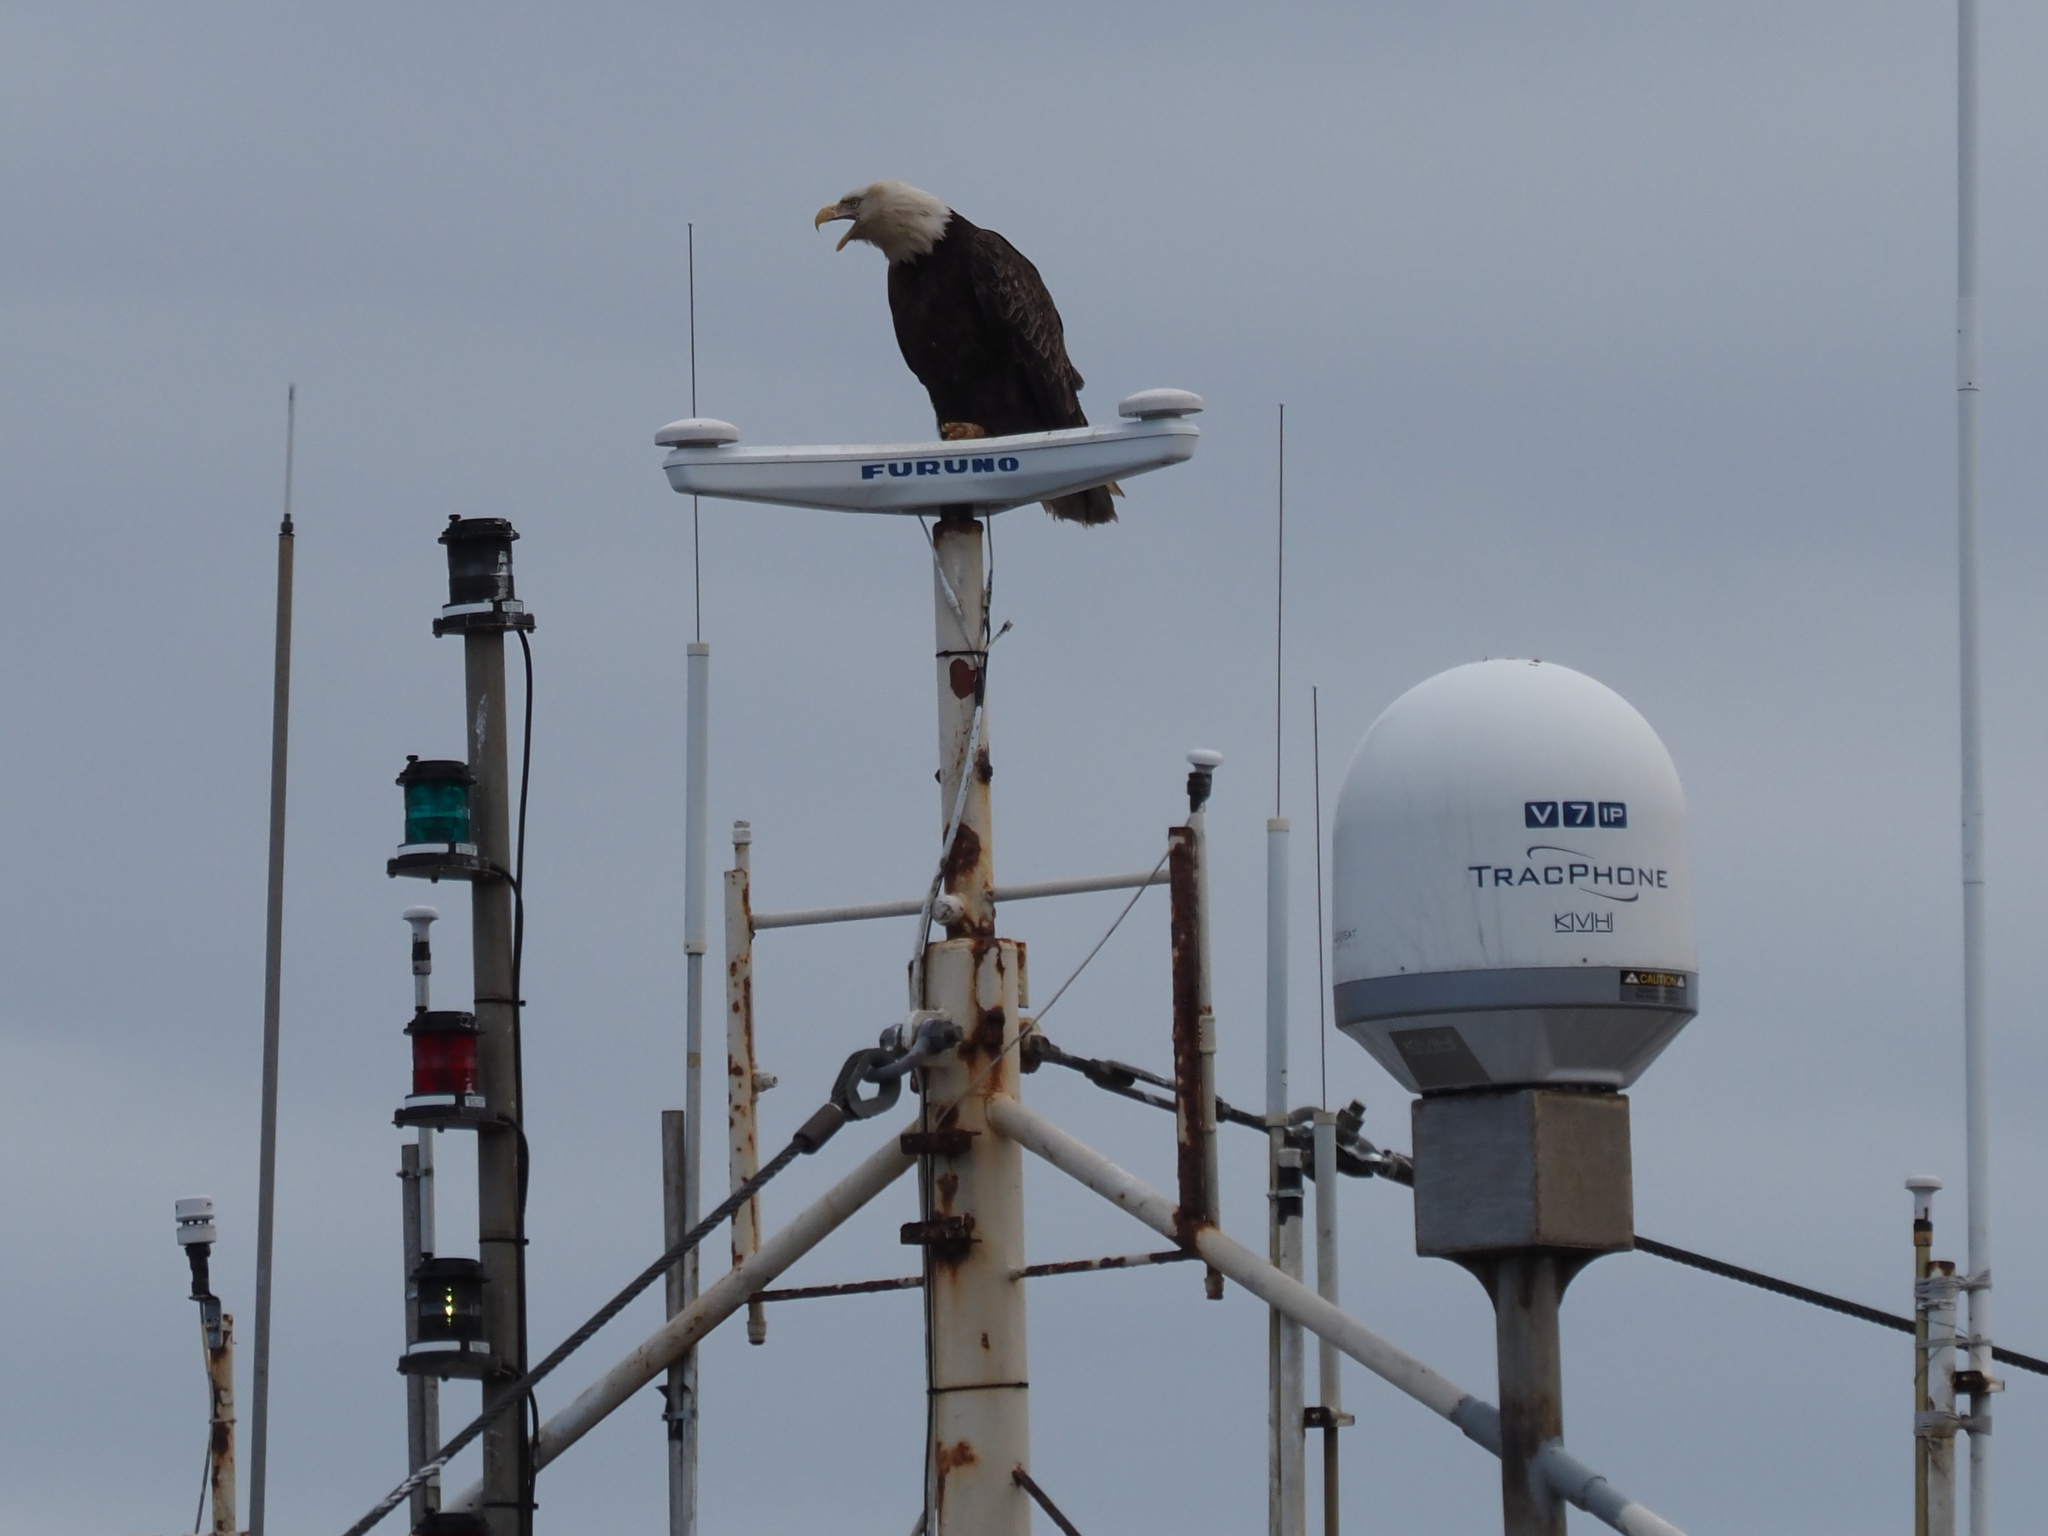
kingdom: Animalia
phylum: Chordata
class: Aves
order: Accipitriformes
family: Accipitridae
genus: Haliaeetus
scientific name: Haliaeetus leucocephalus
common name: Bald eagle
